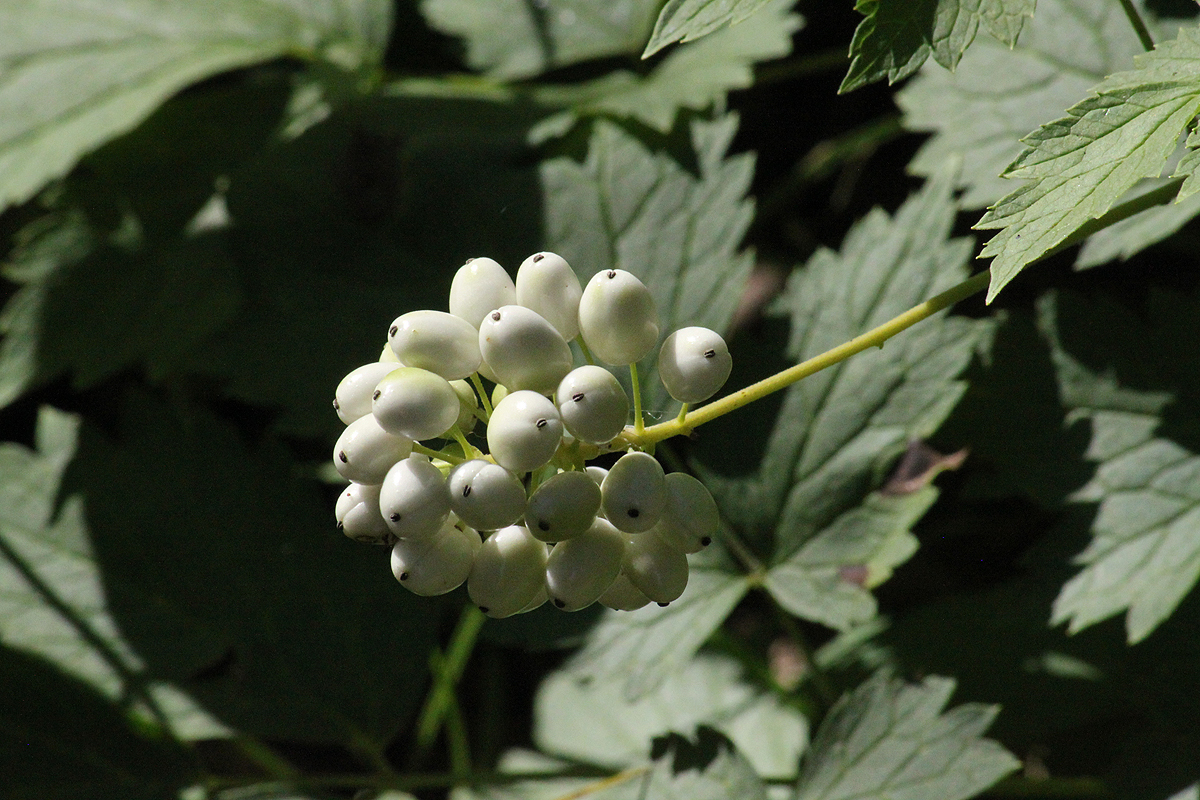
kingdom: Plantae
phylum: Tracheophyta
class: Magnoliopsida
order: Ranunculales
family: Ranunculaceae
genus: Actaea
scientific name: Actaea rubra
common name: Red baneberry
